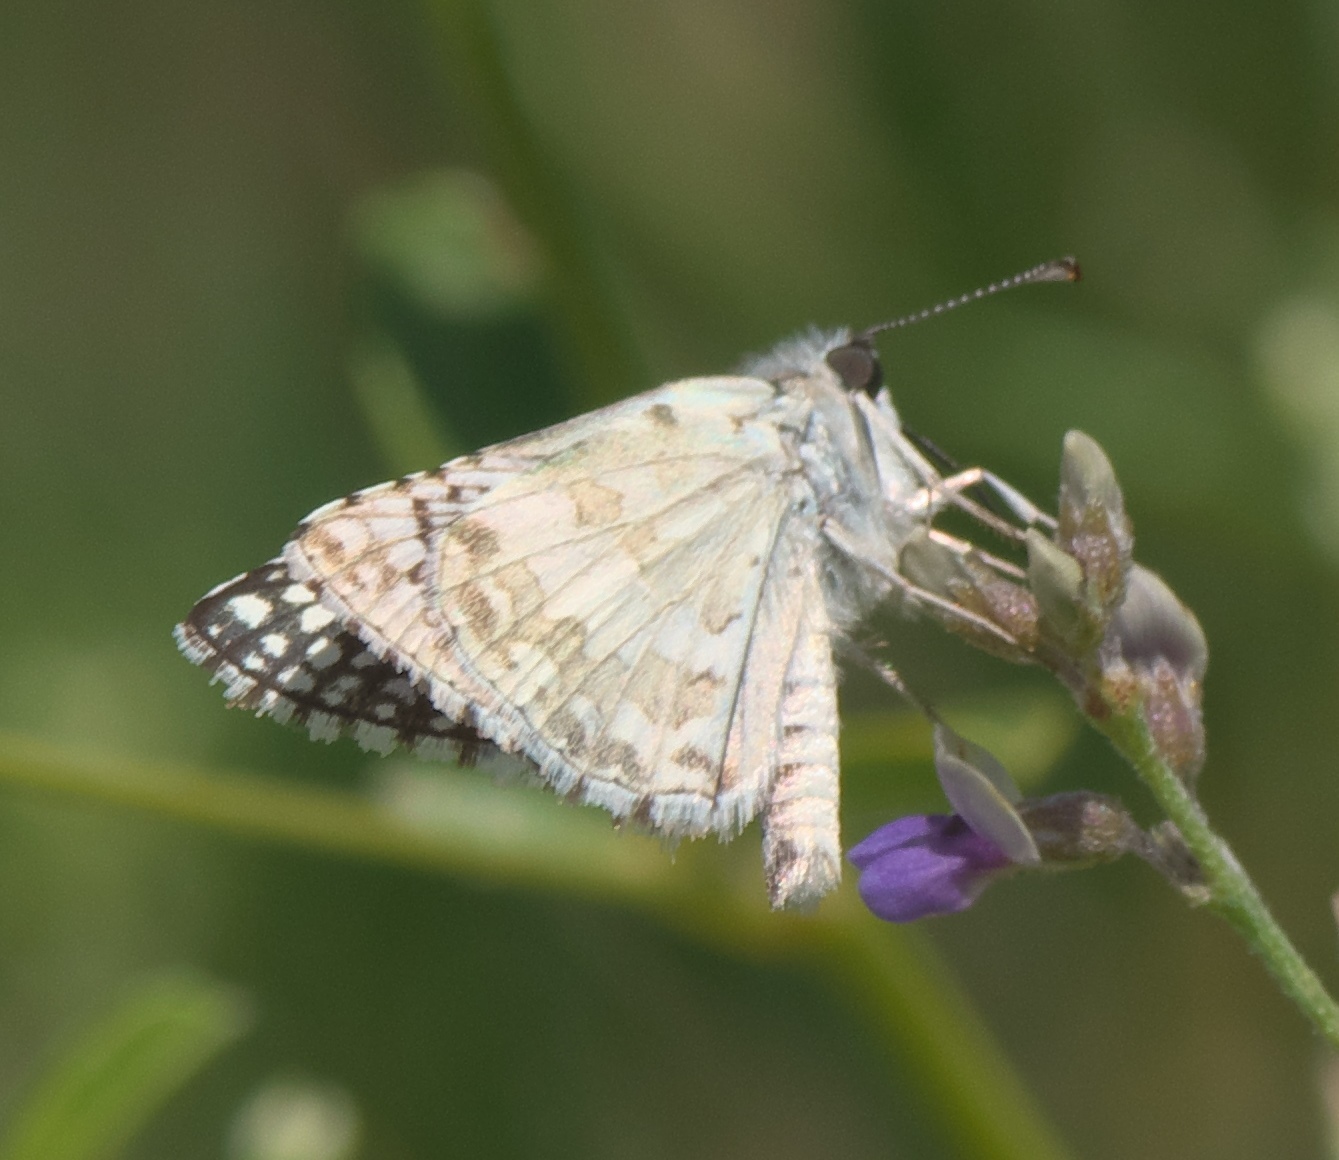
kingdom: Animalia
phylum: Arthropoda
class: Insecta
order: Lepidoptera
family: Hesperiidae
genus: Burnsius
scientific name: Burnsius communis
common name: Common checkered-skipper
